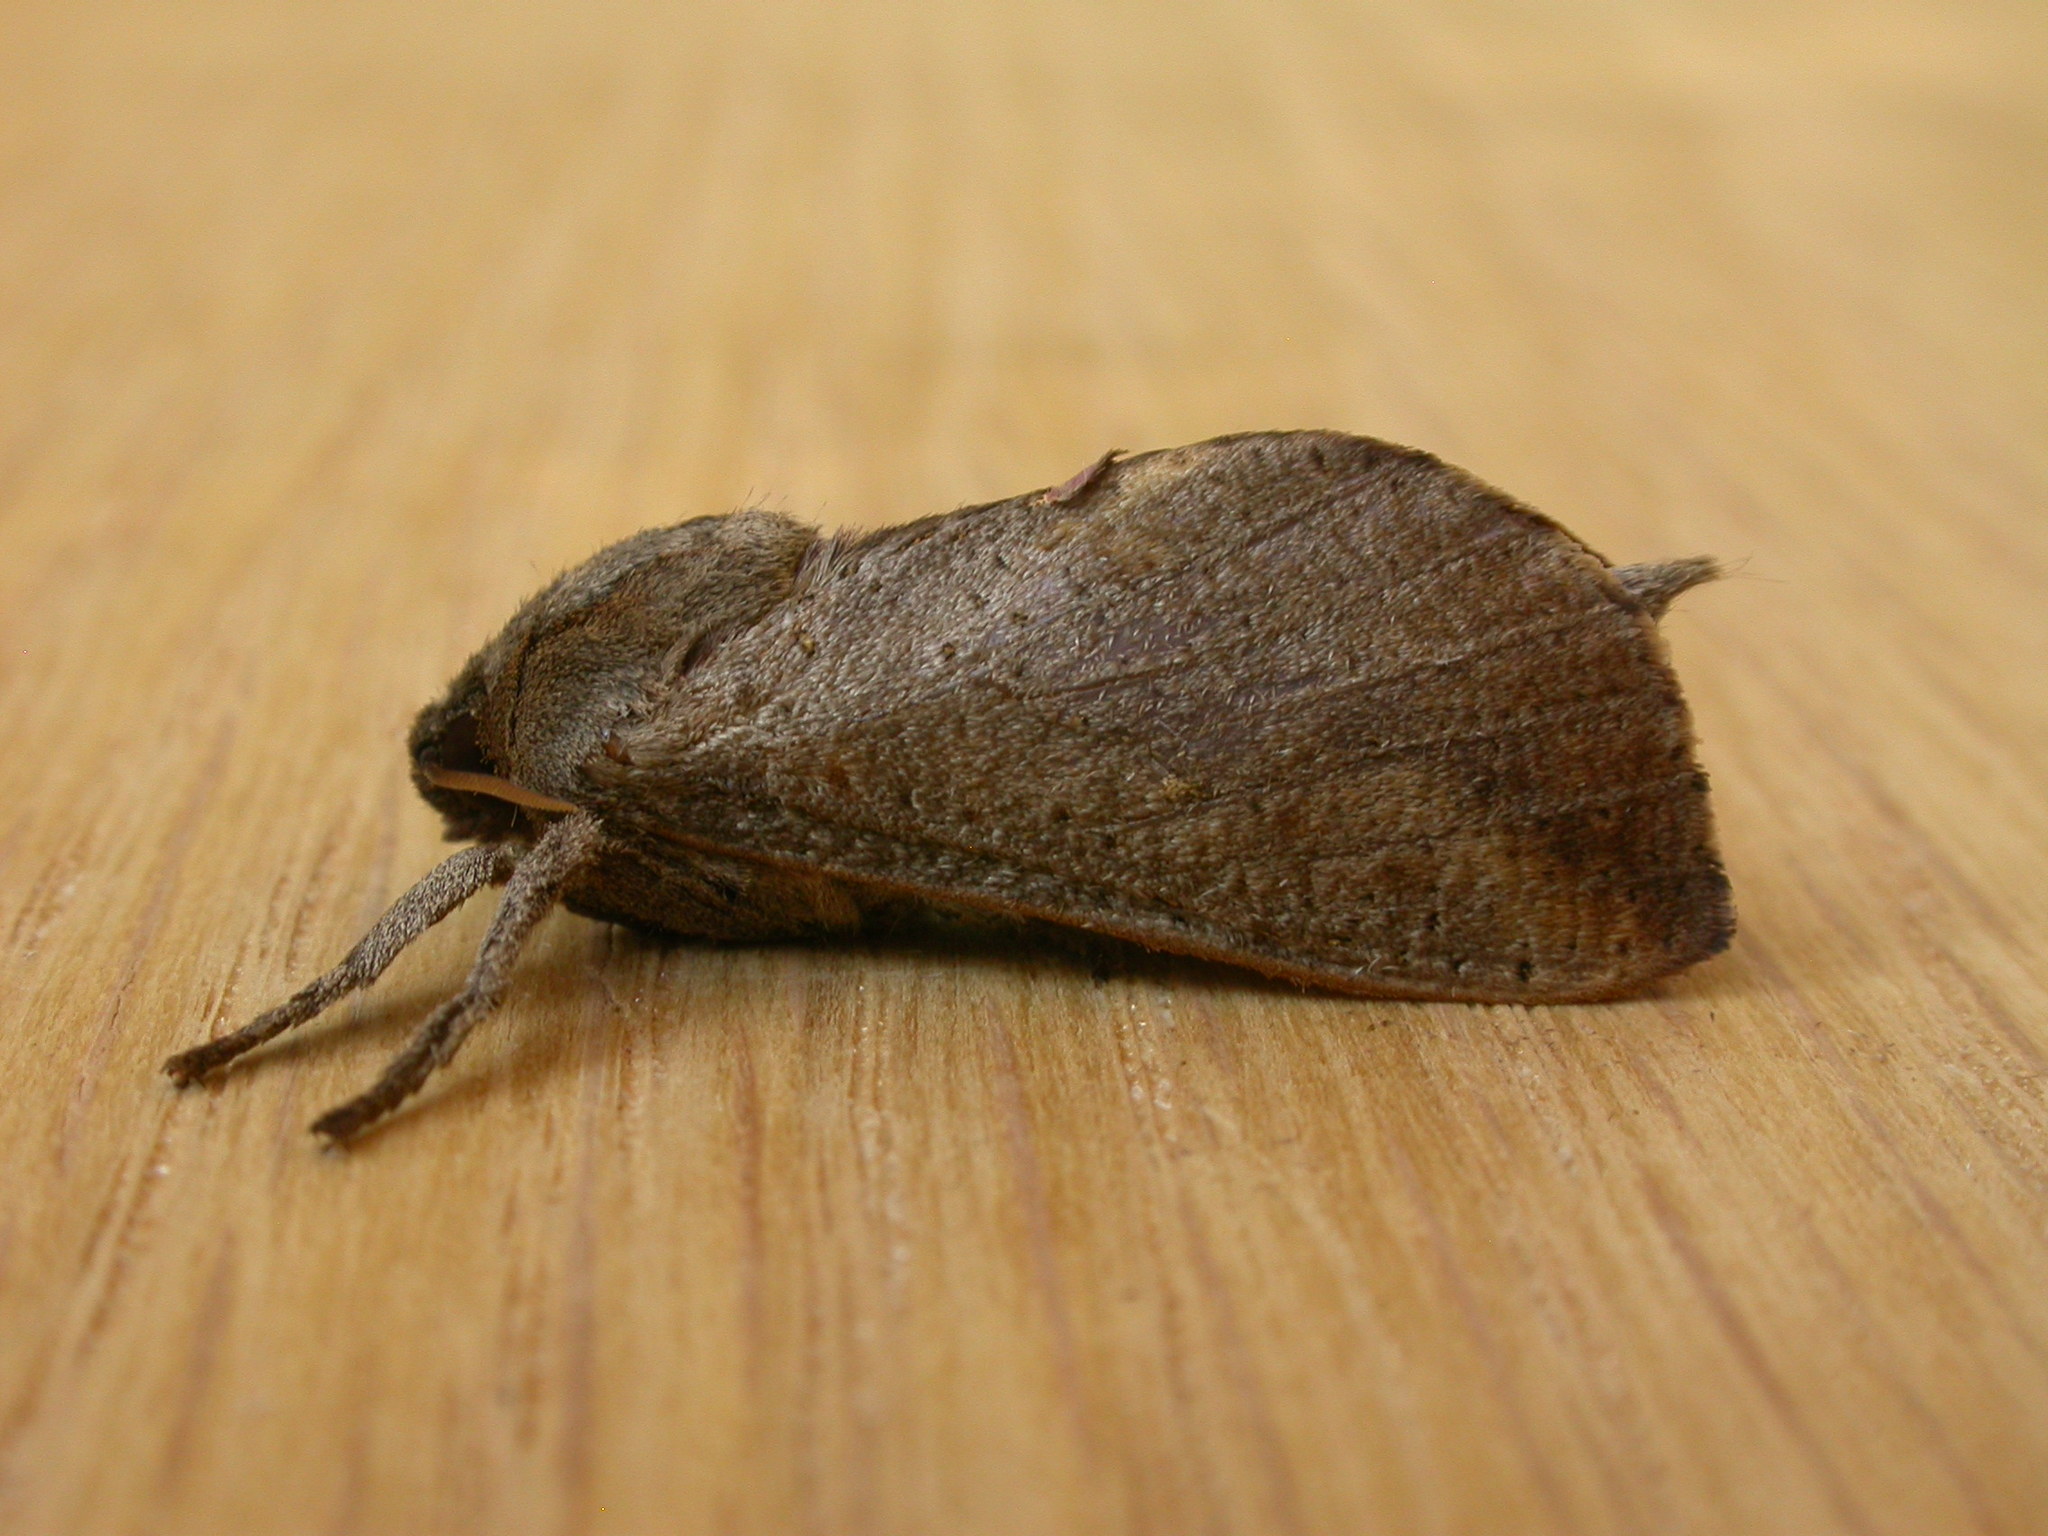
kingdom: Animalia
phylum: Arthropoda
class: Insecta
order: Lepidoptera
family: Hepialidae
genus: Elhamma
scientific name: Elhamma australasiae
